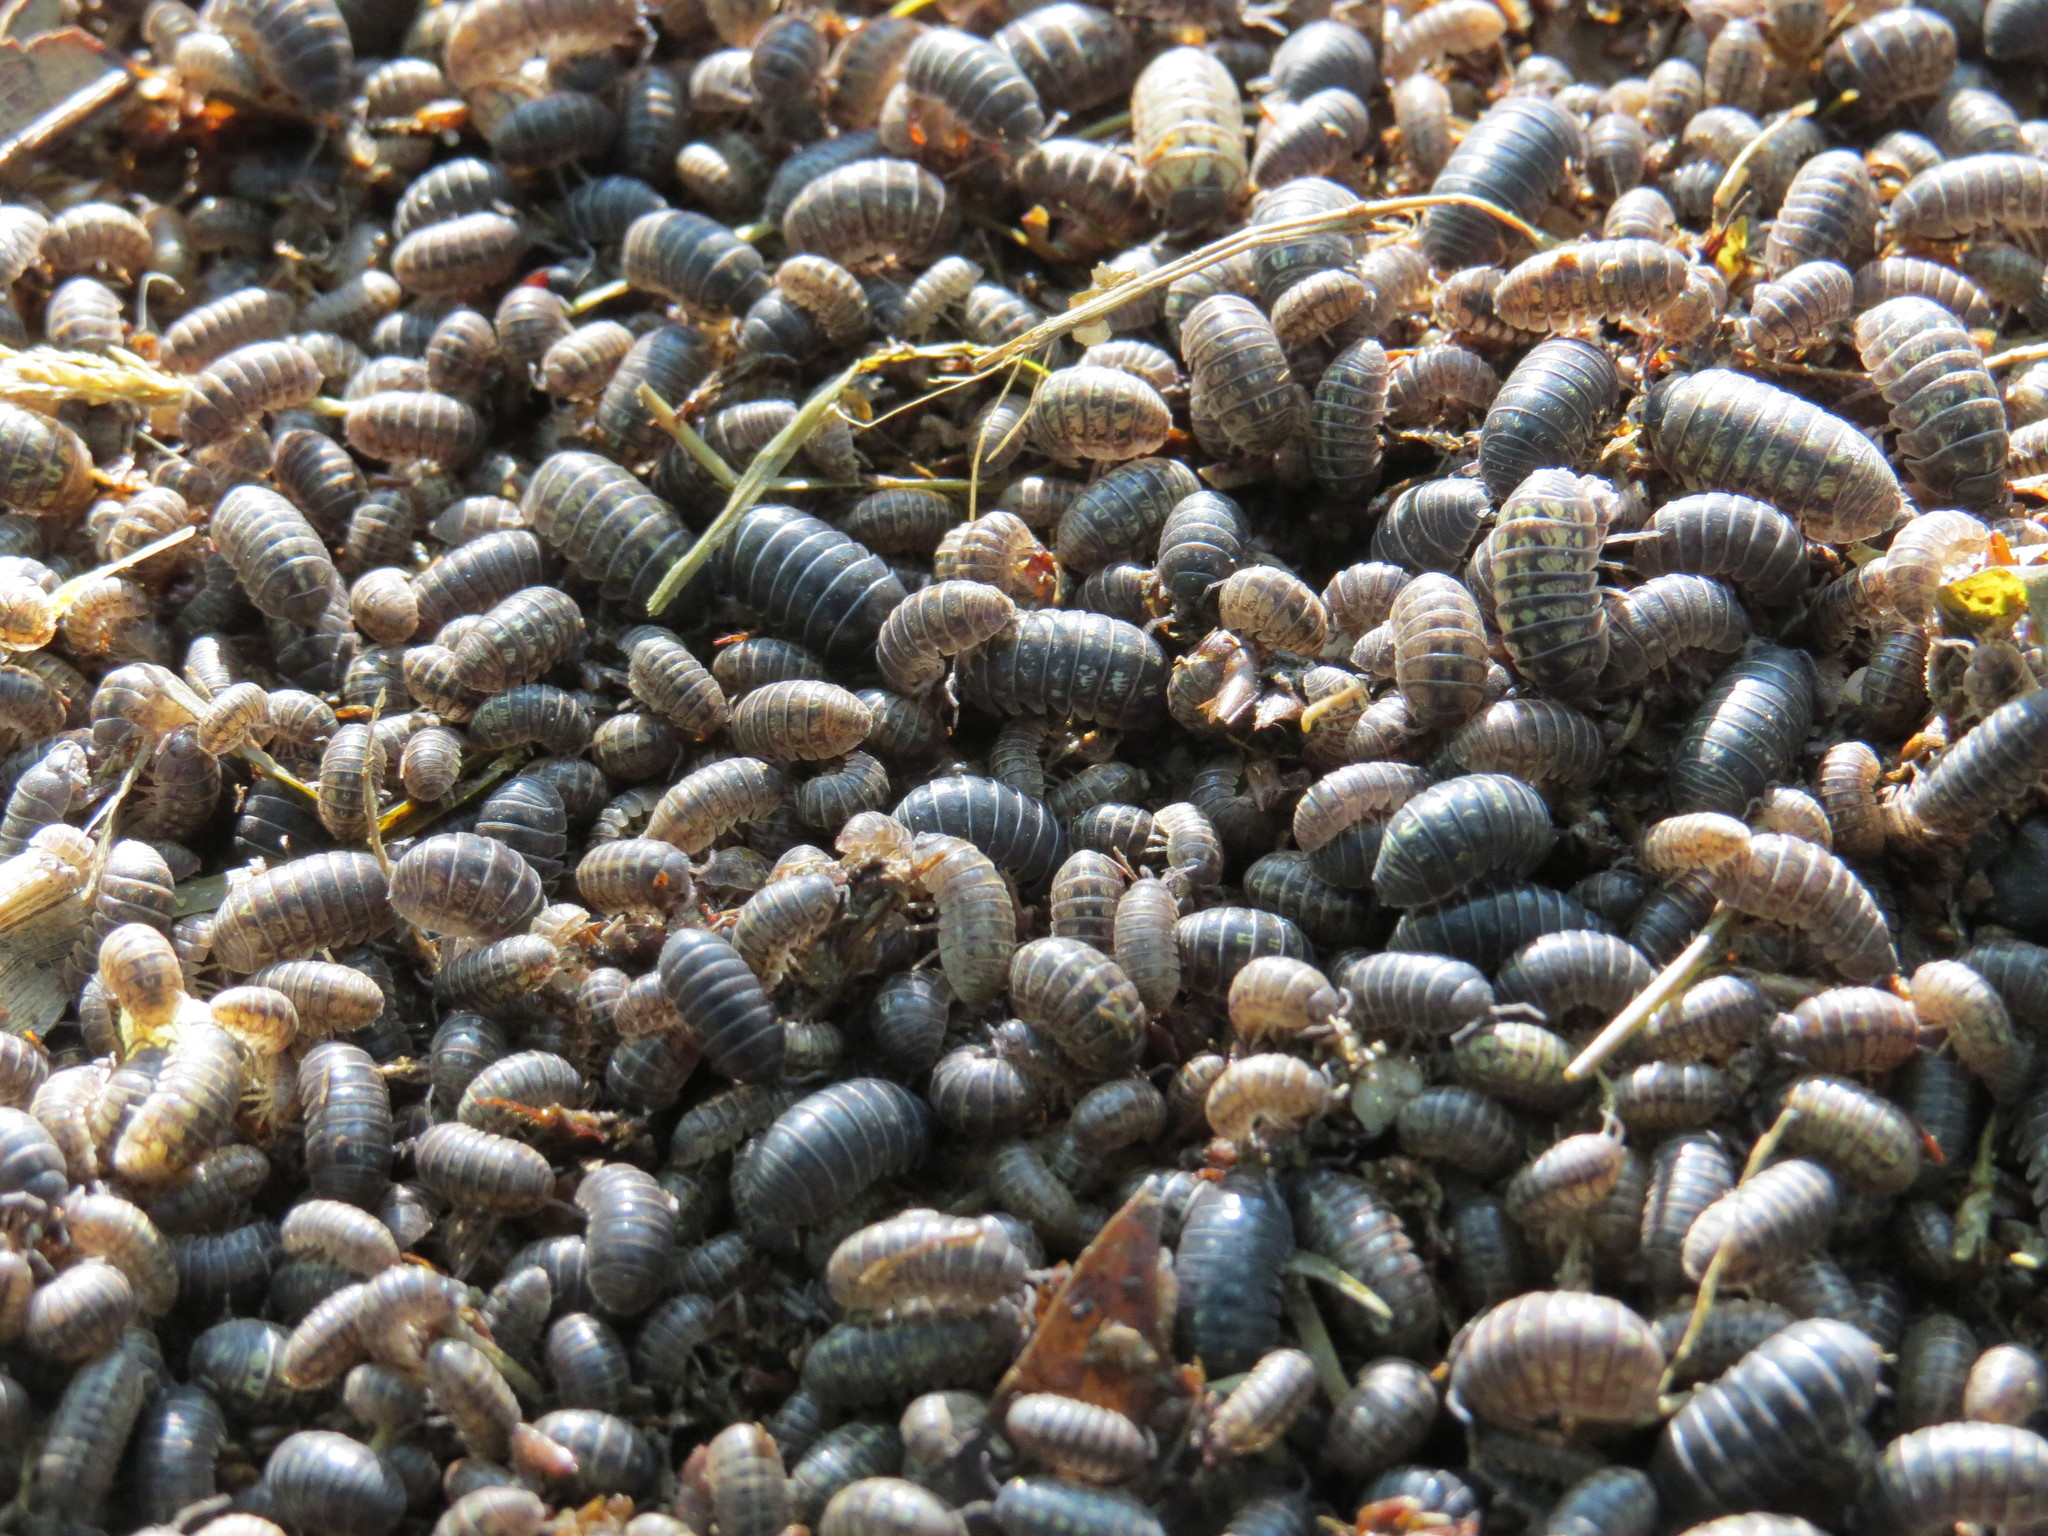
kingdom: Animalia
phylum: Arthropoda
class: Malacostraca
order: Isopoda
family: Armadillidiidae
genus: Armadillidium
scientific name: Armadillidium vulgare
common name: Common pill woodlouse
